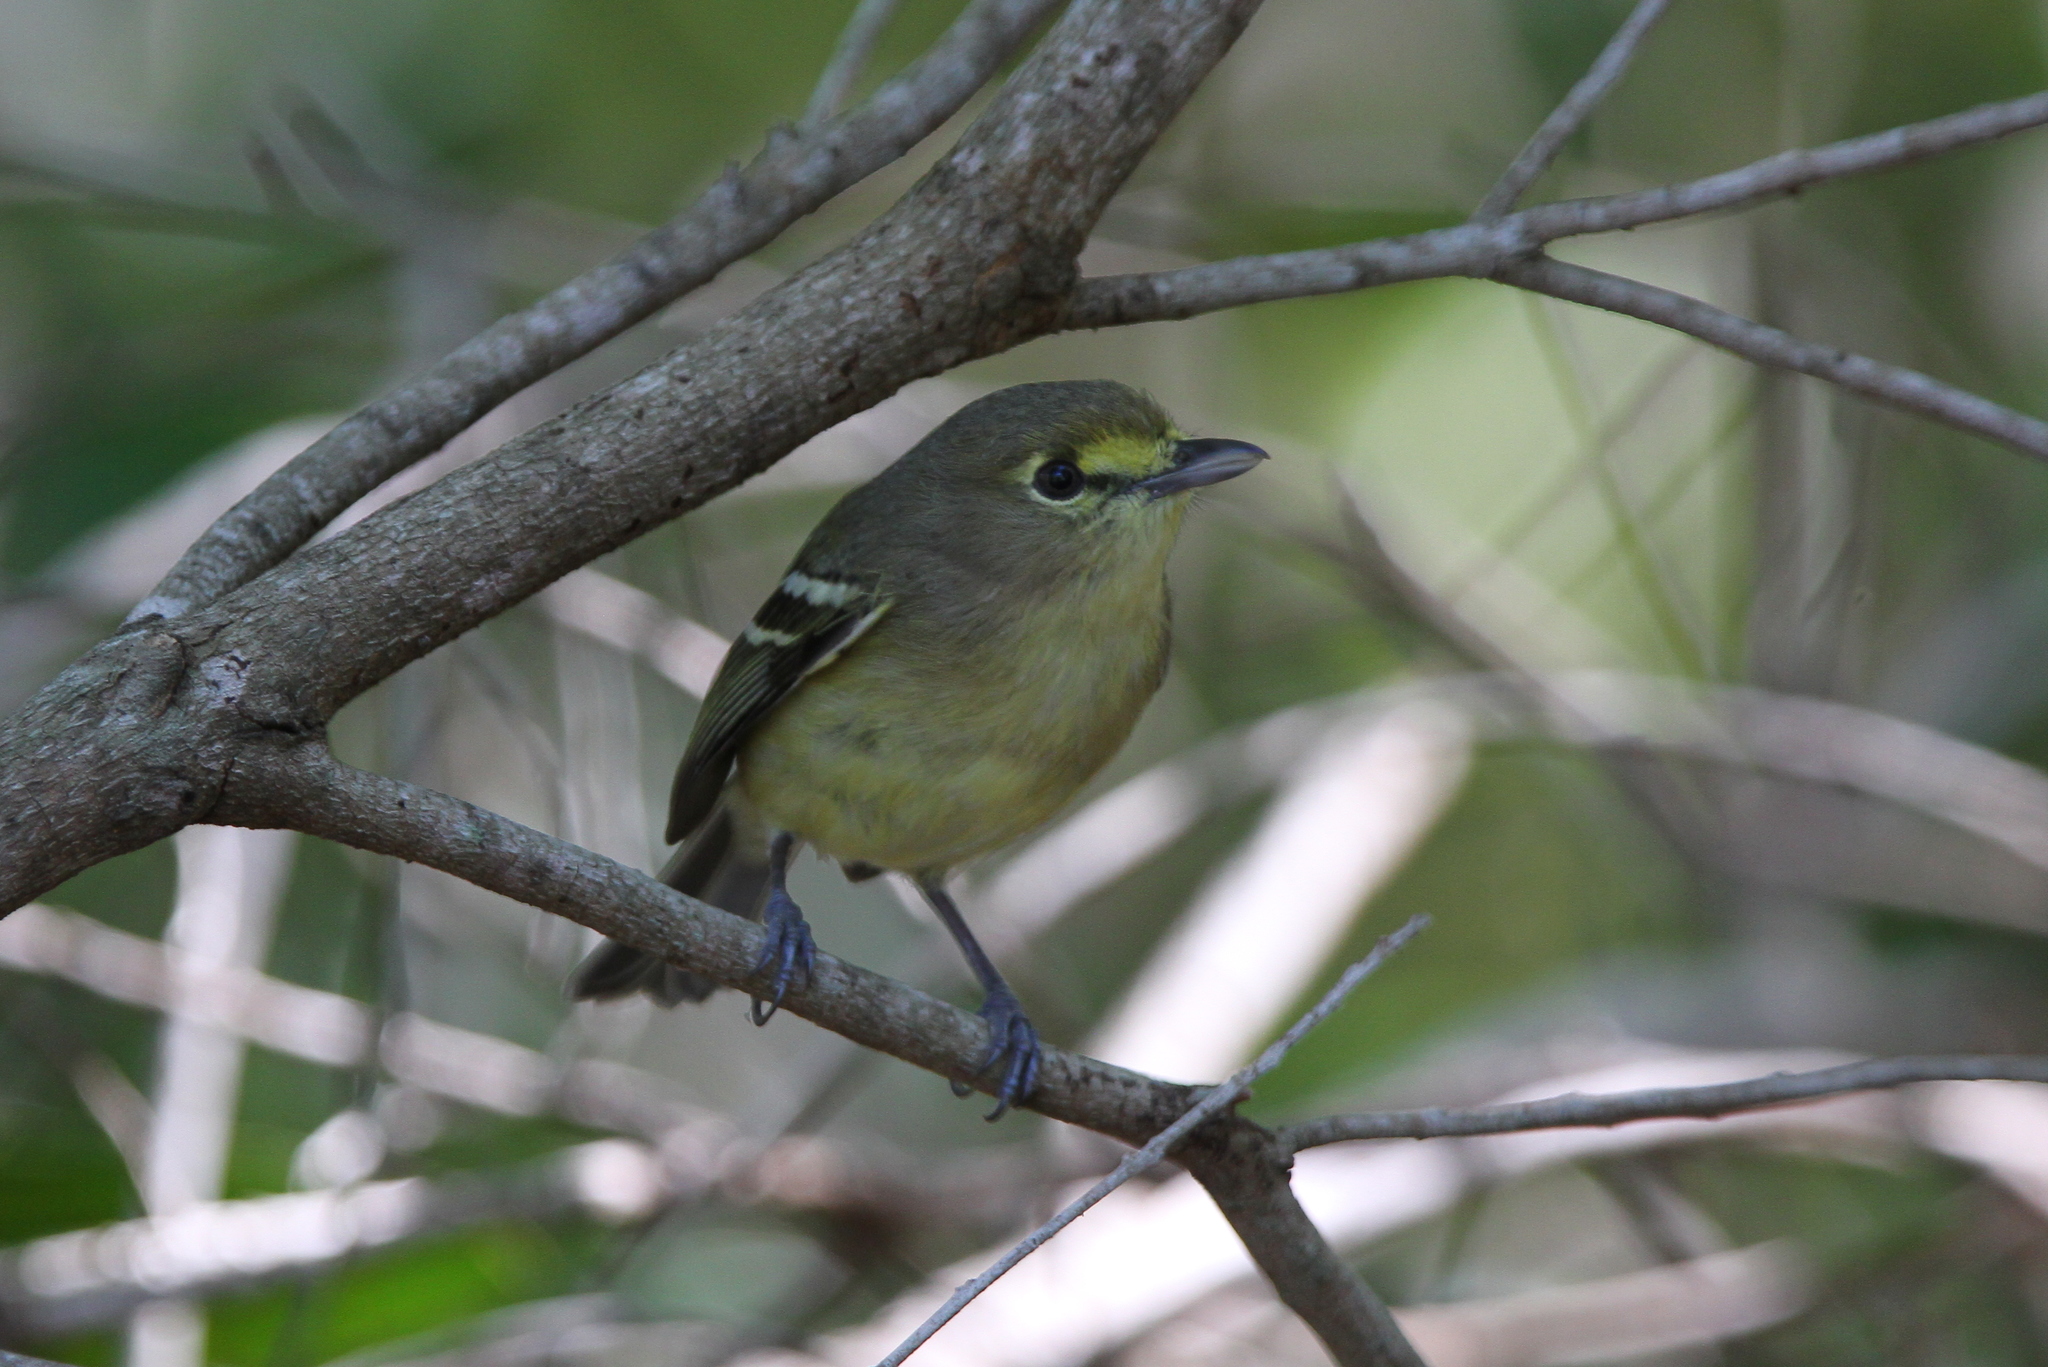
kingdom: Animalia
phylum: Chordata
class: Aves
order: Passeriformes
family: Vireonidae
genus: Vireo
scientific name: Vireo crassirostris
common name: Thick-billed vireo
